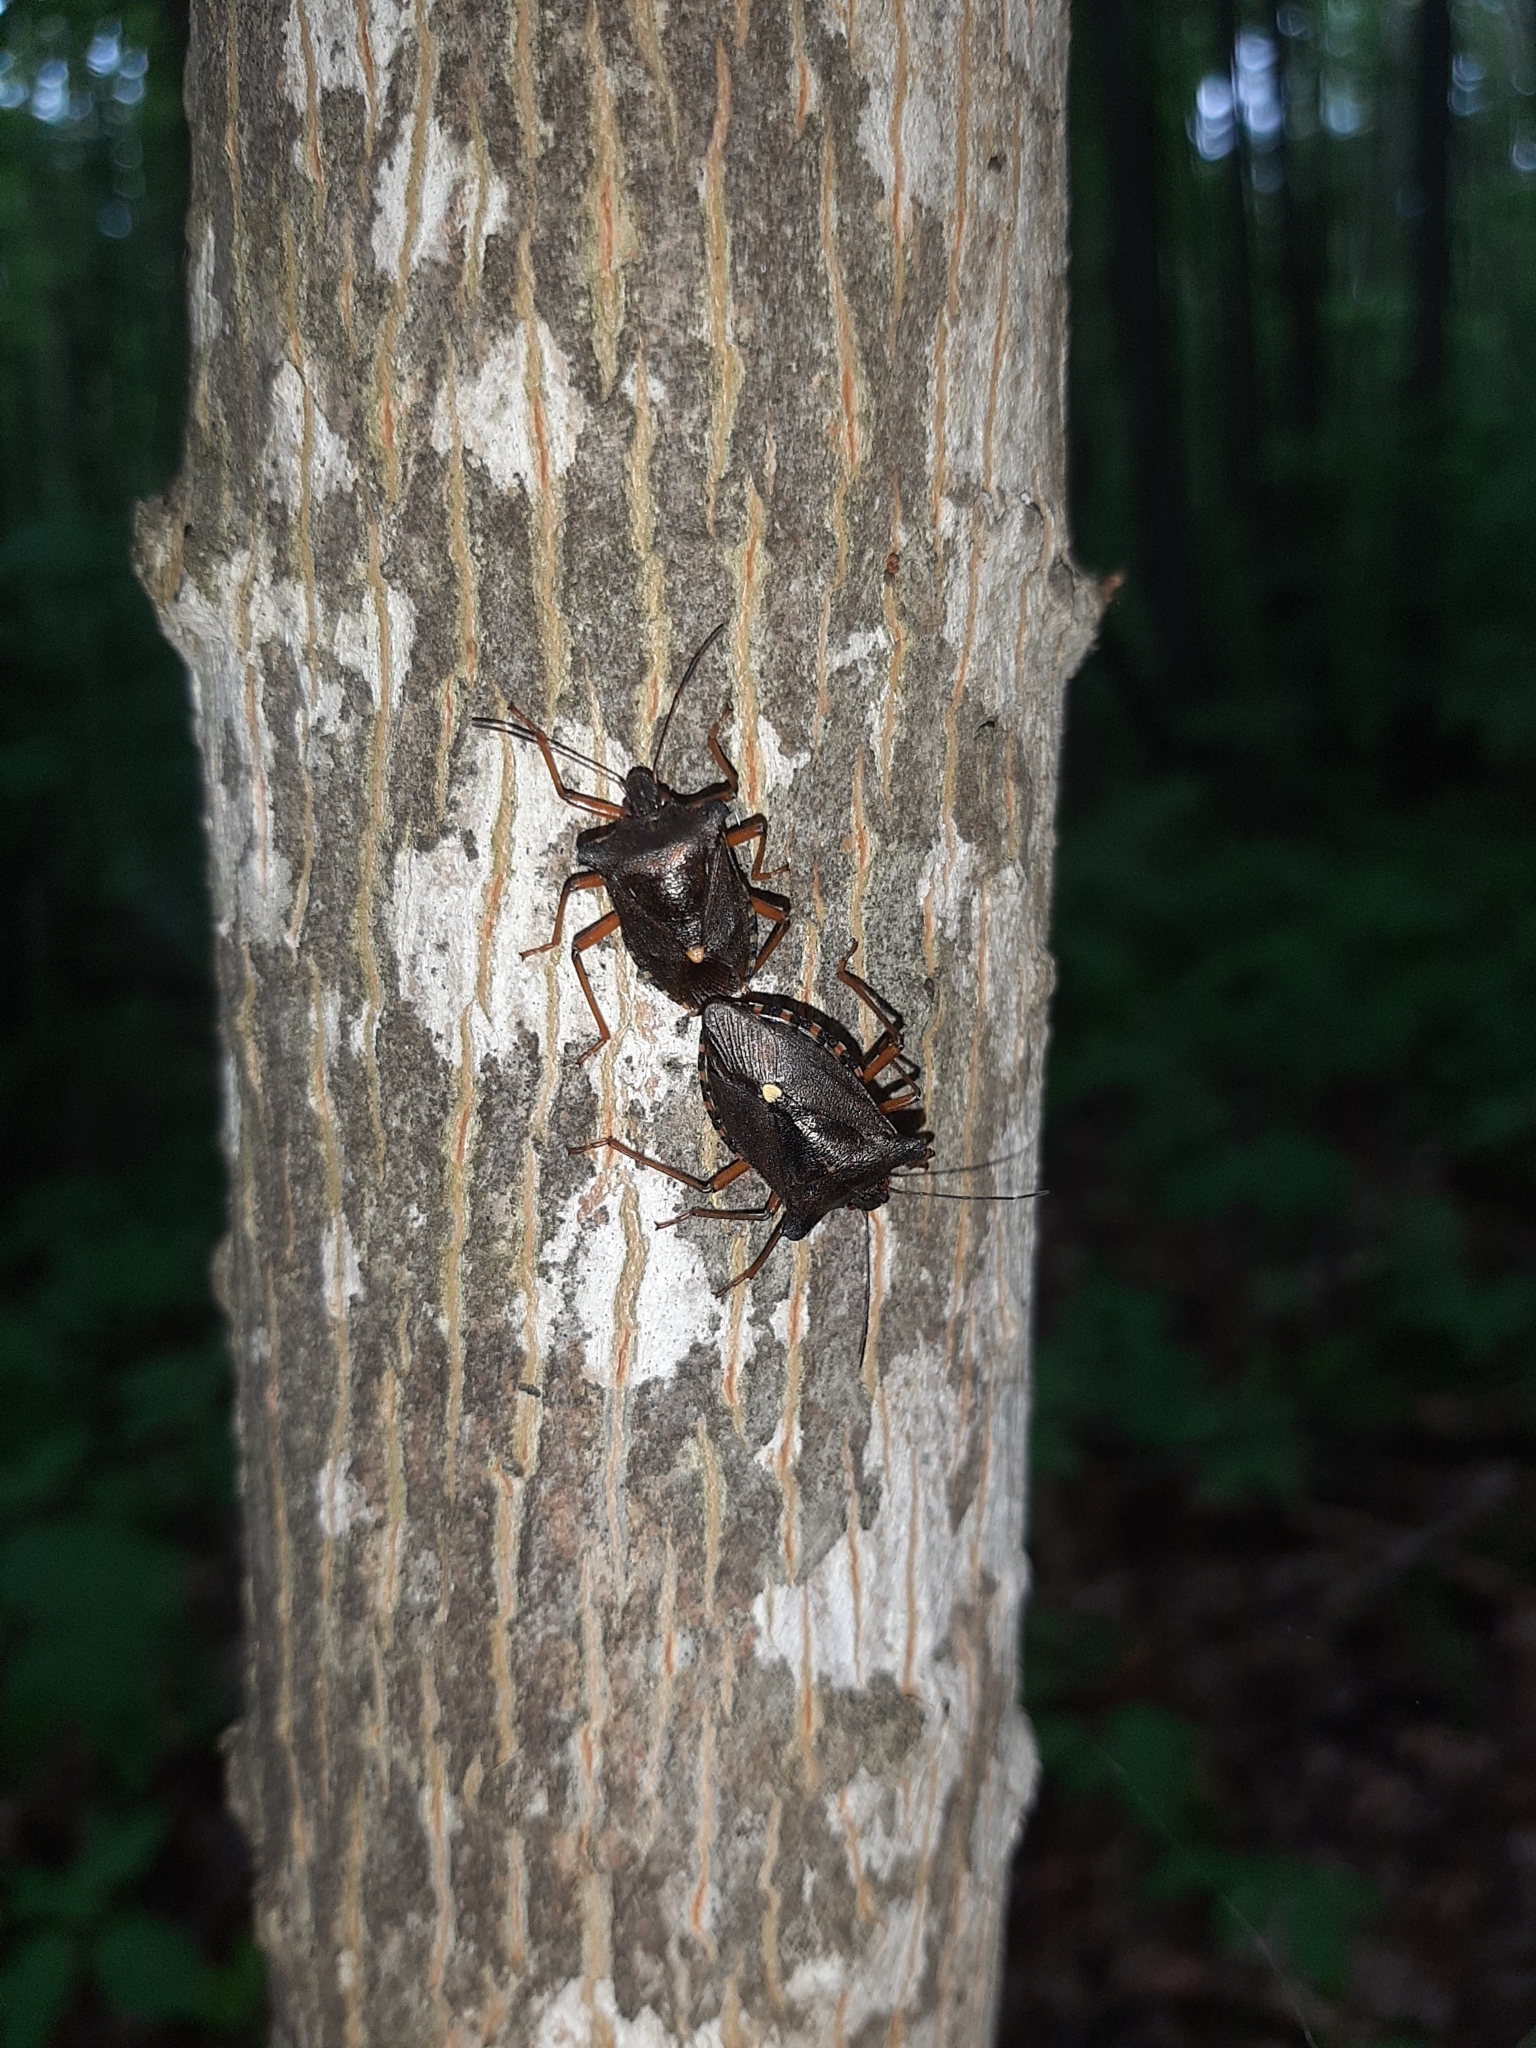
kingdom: Animalia
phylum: Arthropoda
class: Insecta
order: Hemiptera
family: Pentatomidae
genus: Pentatoma
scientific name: Pentatoma rufipes
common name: Forest bug
